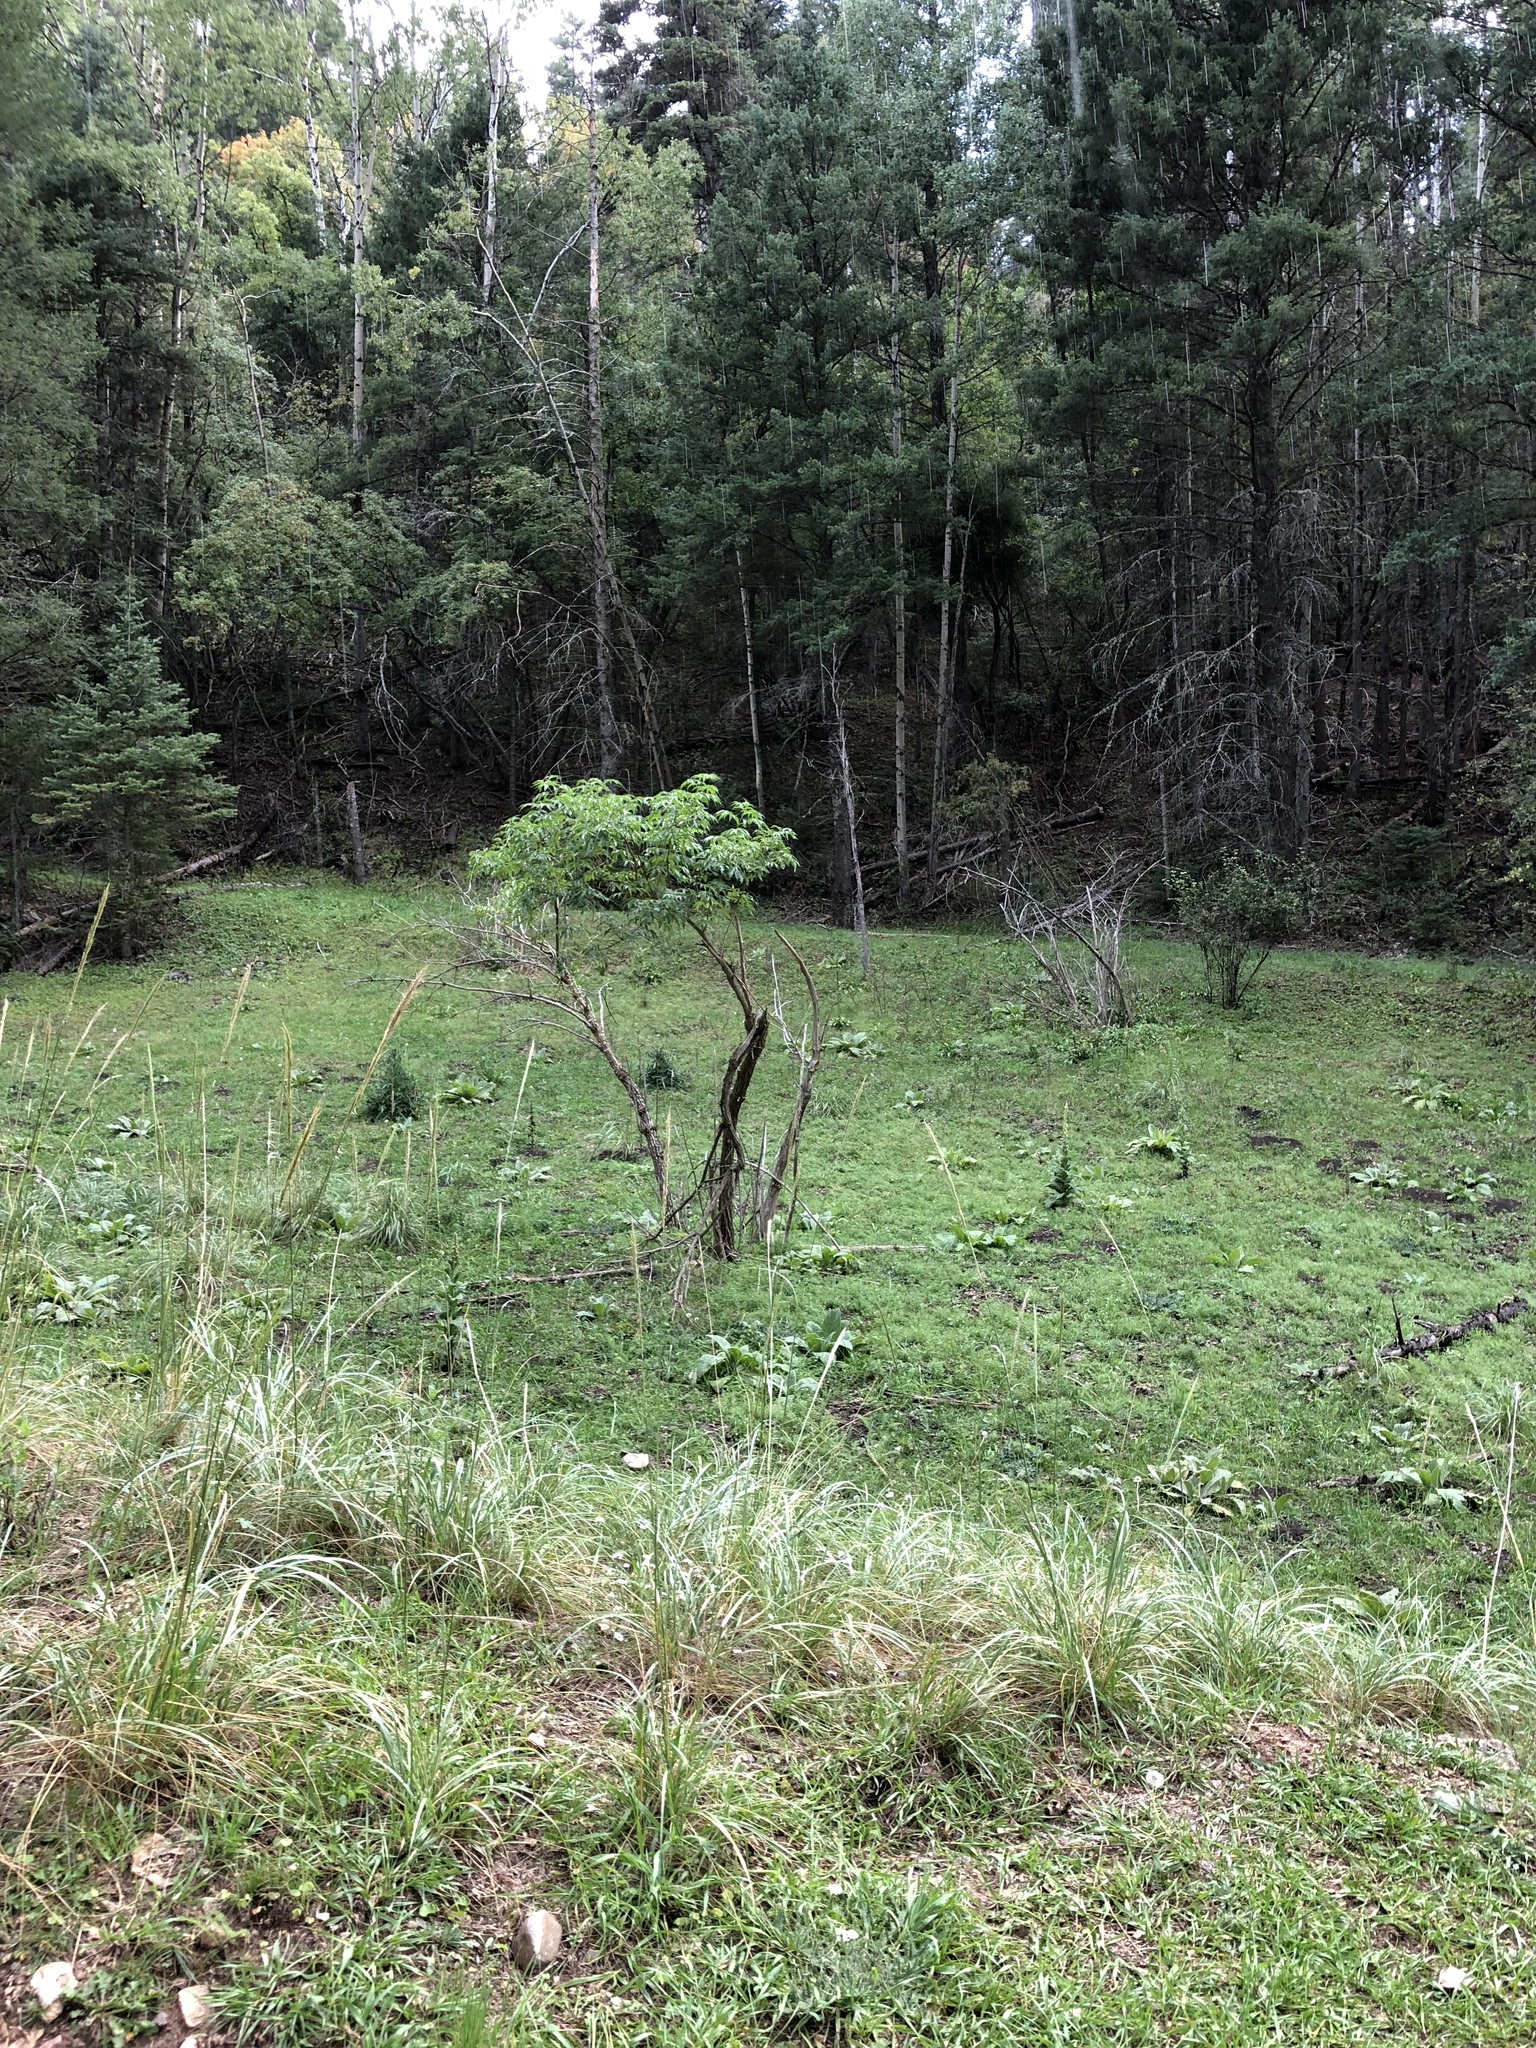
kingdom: Plantae
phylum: Tracheophyta
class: Magnoliopsida
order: Dipsacales
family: Viburnaceae
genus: Sambucus
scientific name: Sambucus cerulea
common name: Blue elder
